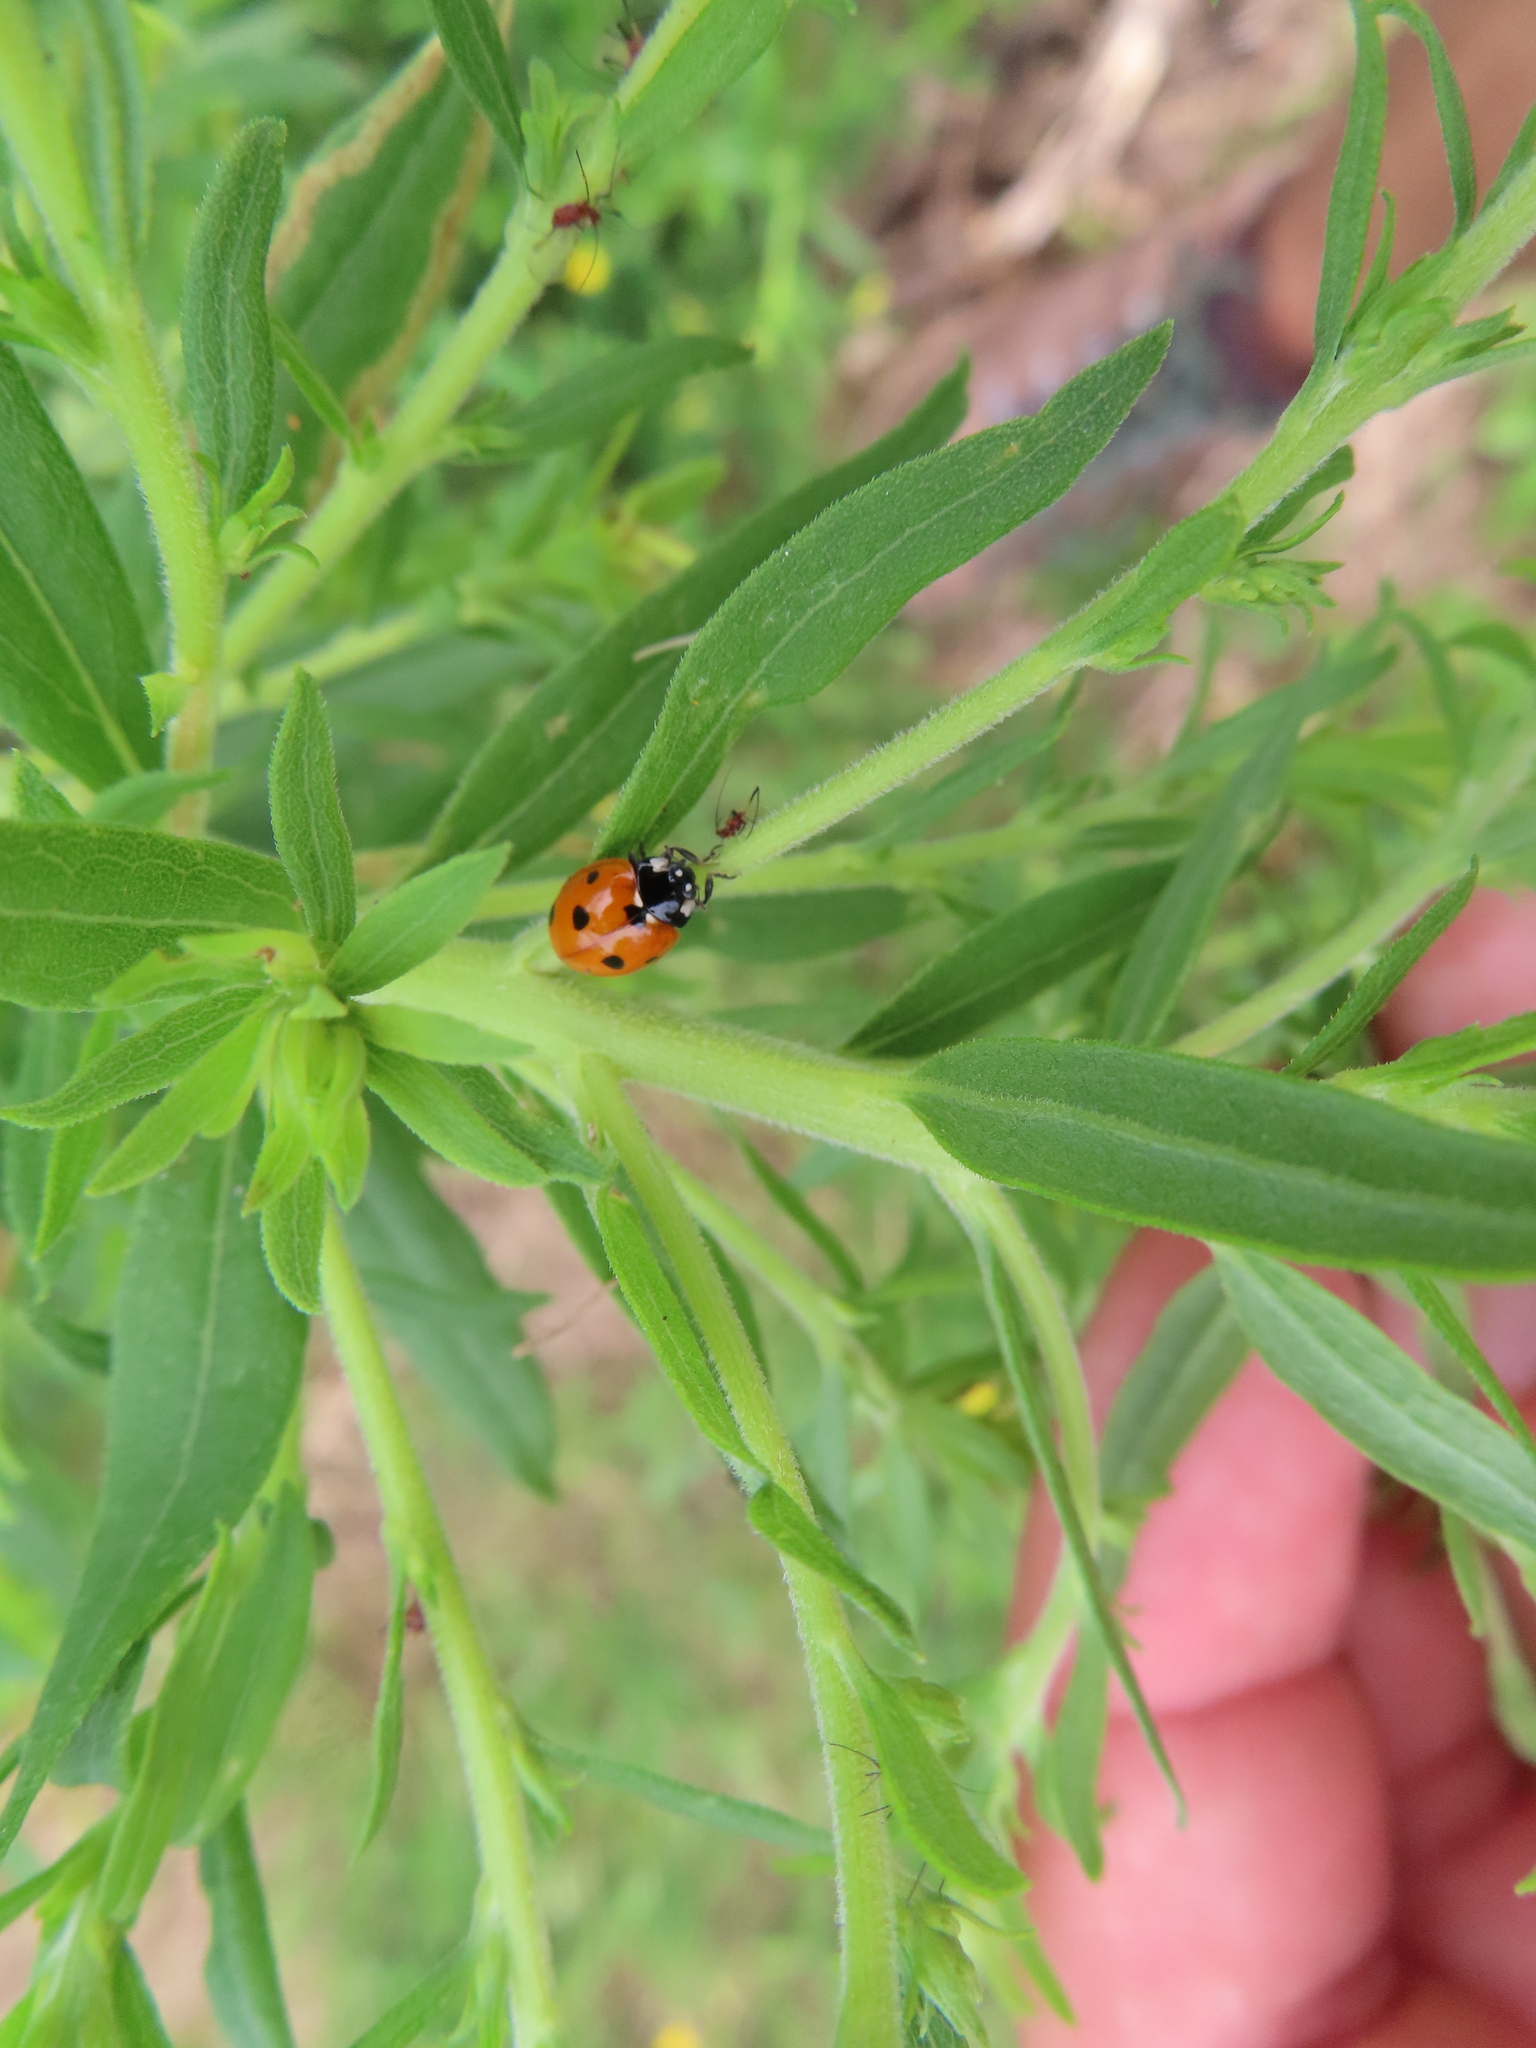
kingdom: Animalia
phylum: Arthropoda
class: Insecta
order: Coleoptera
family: Coccinellidae
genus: Coccinella
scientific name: Coccinella septempunctata
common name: Sevenspotted lady beetle
